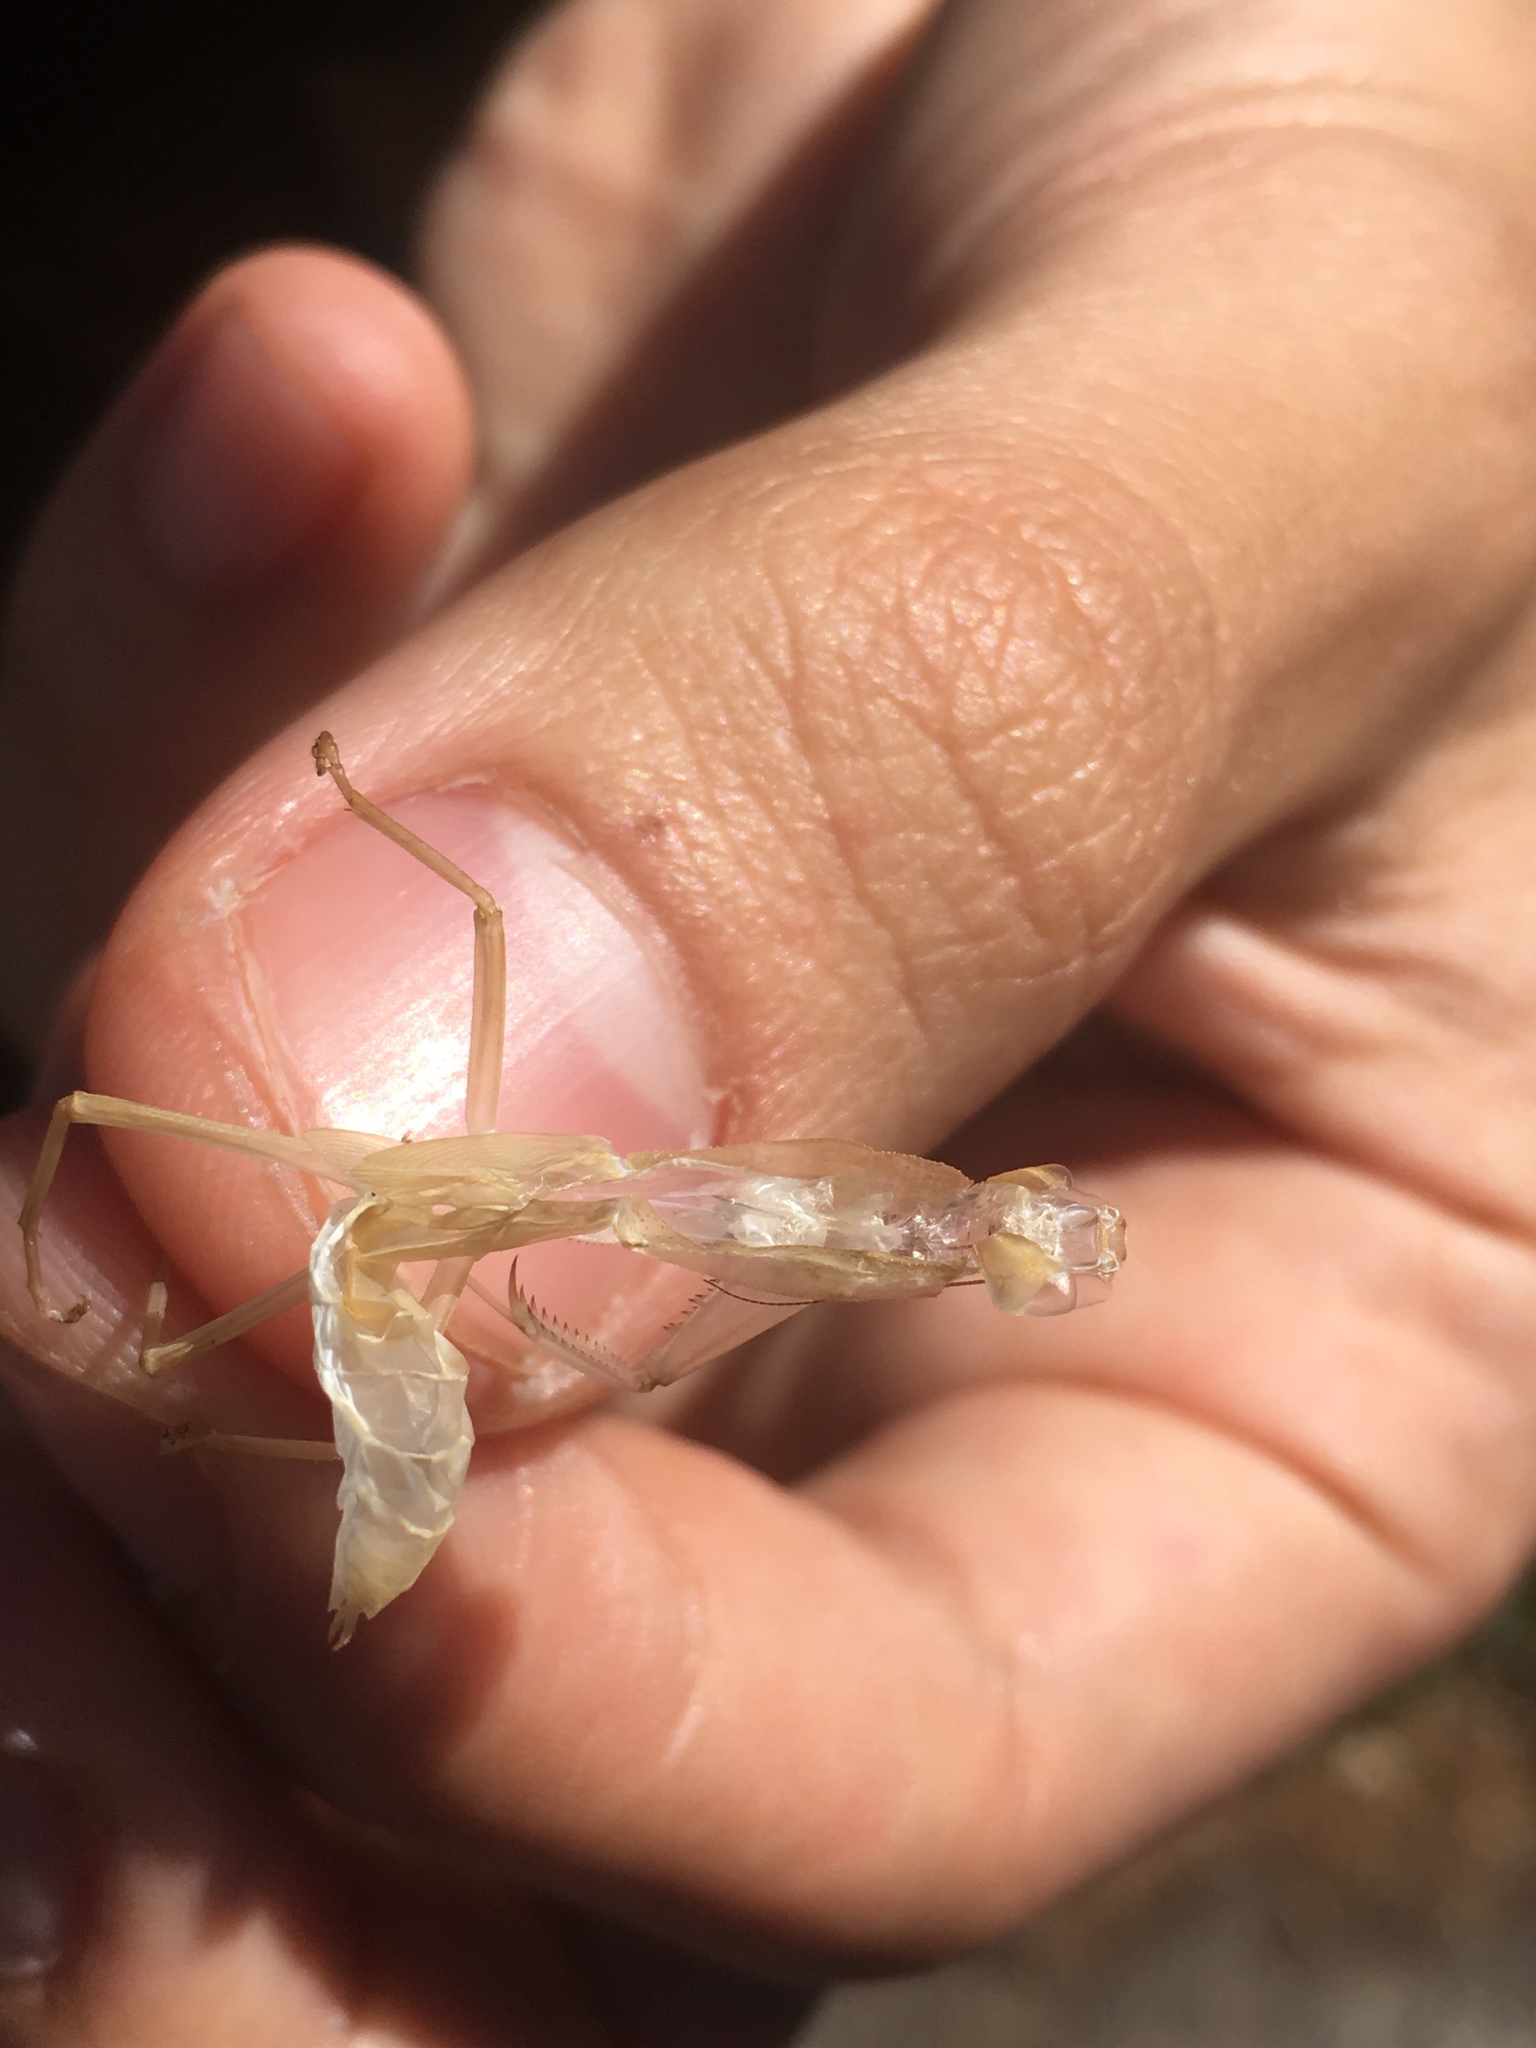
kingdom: Animalia
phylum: Arthropoda
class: Insecta
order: Mantodea
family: Mantidae
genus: Orthodera
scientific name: Orthodera novaezealandiae
